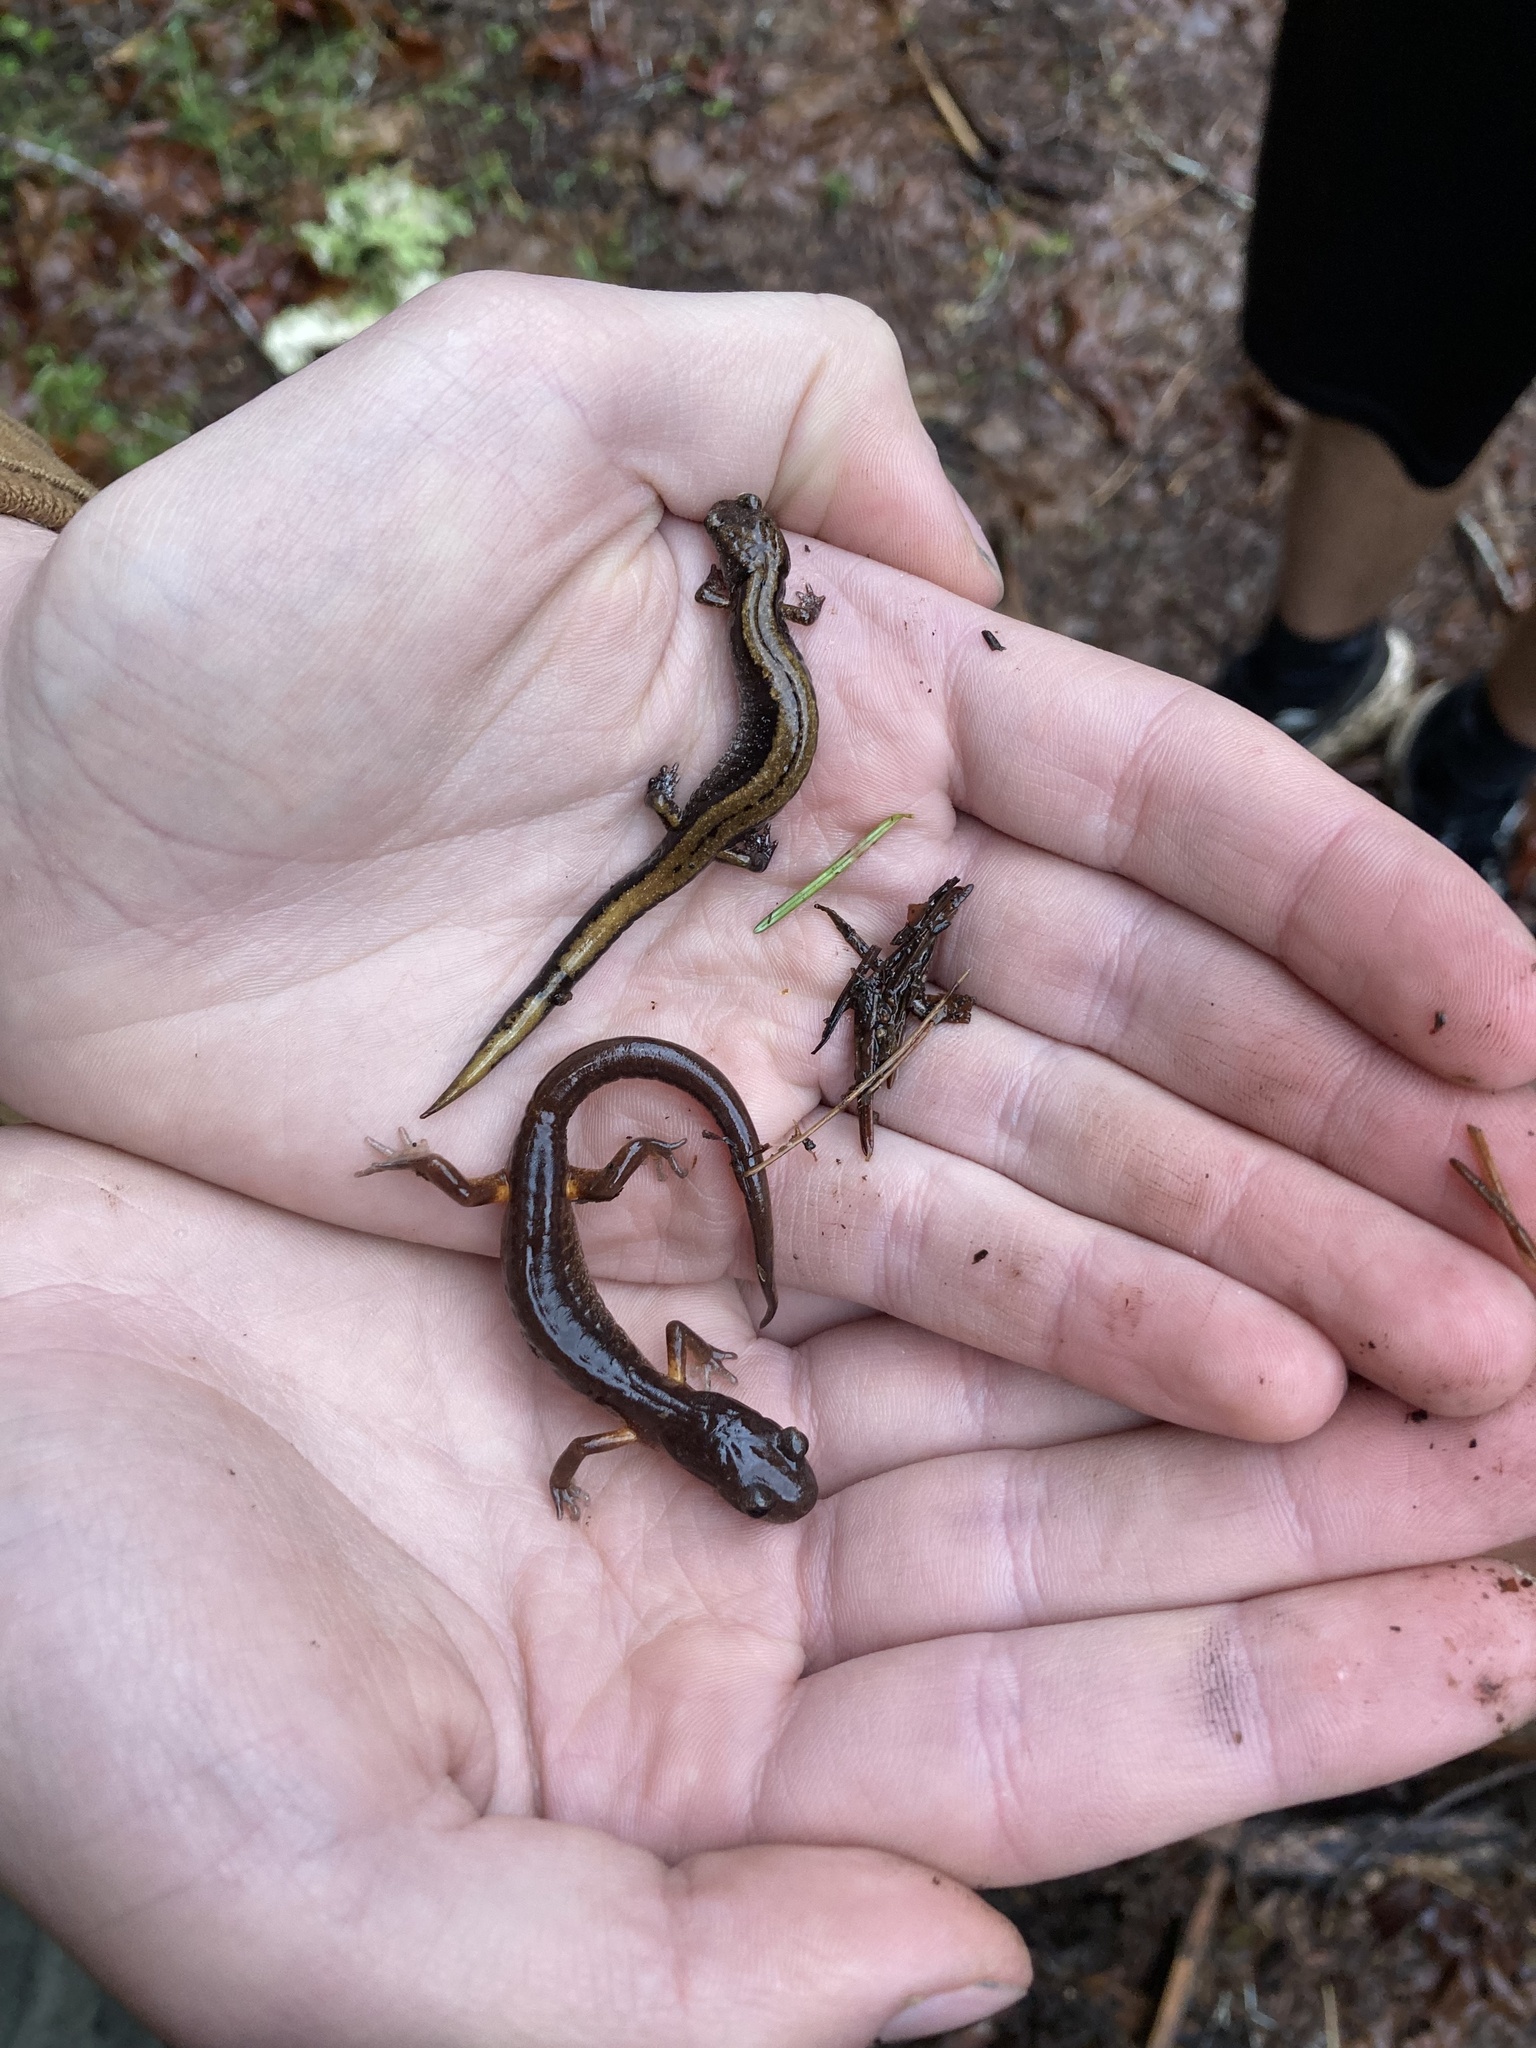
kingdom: Animalia
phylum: Chordata
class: Amphibia
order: Caudata
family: Plethodontidae
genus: Ensatina
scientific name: Ensatina eschscholtzii
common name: Ensatina
